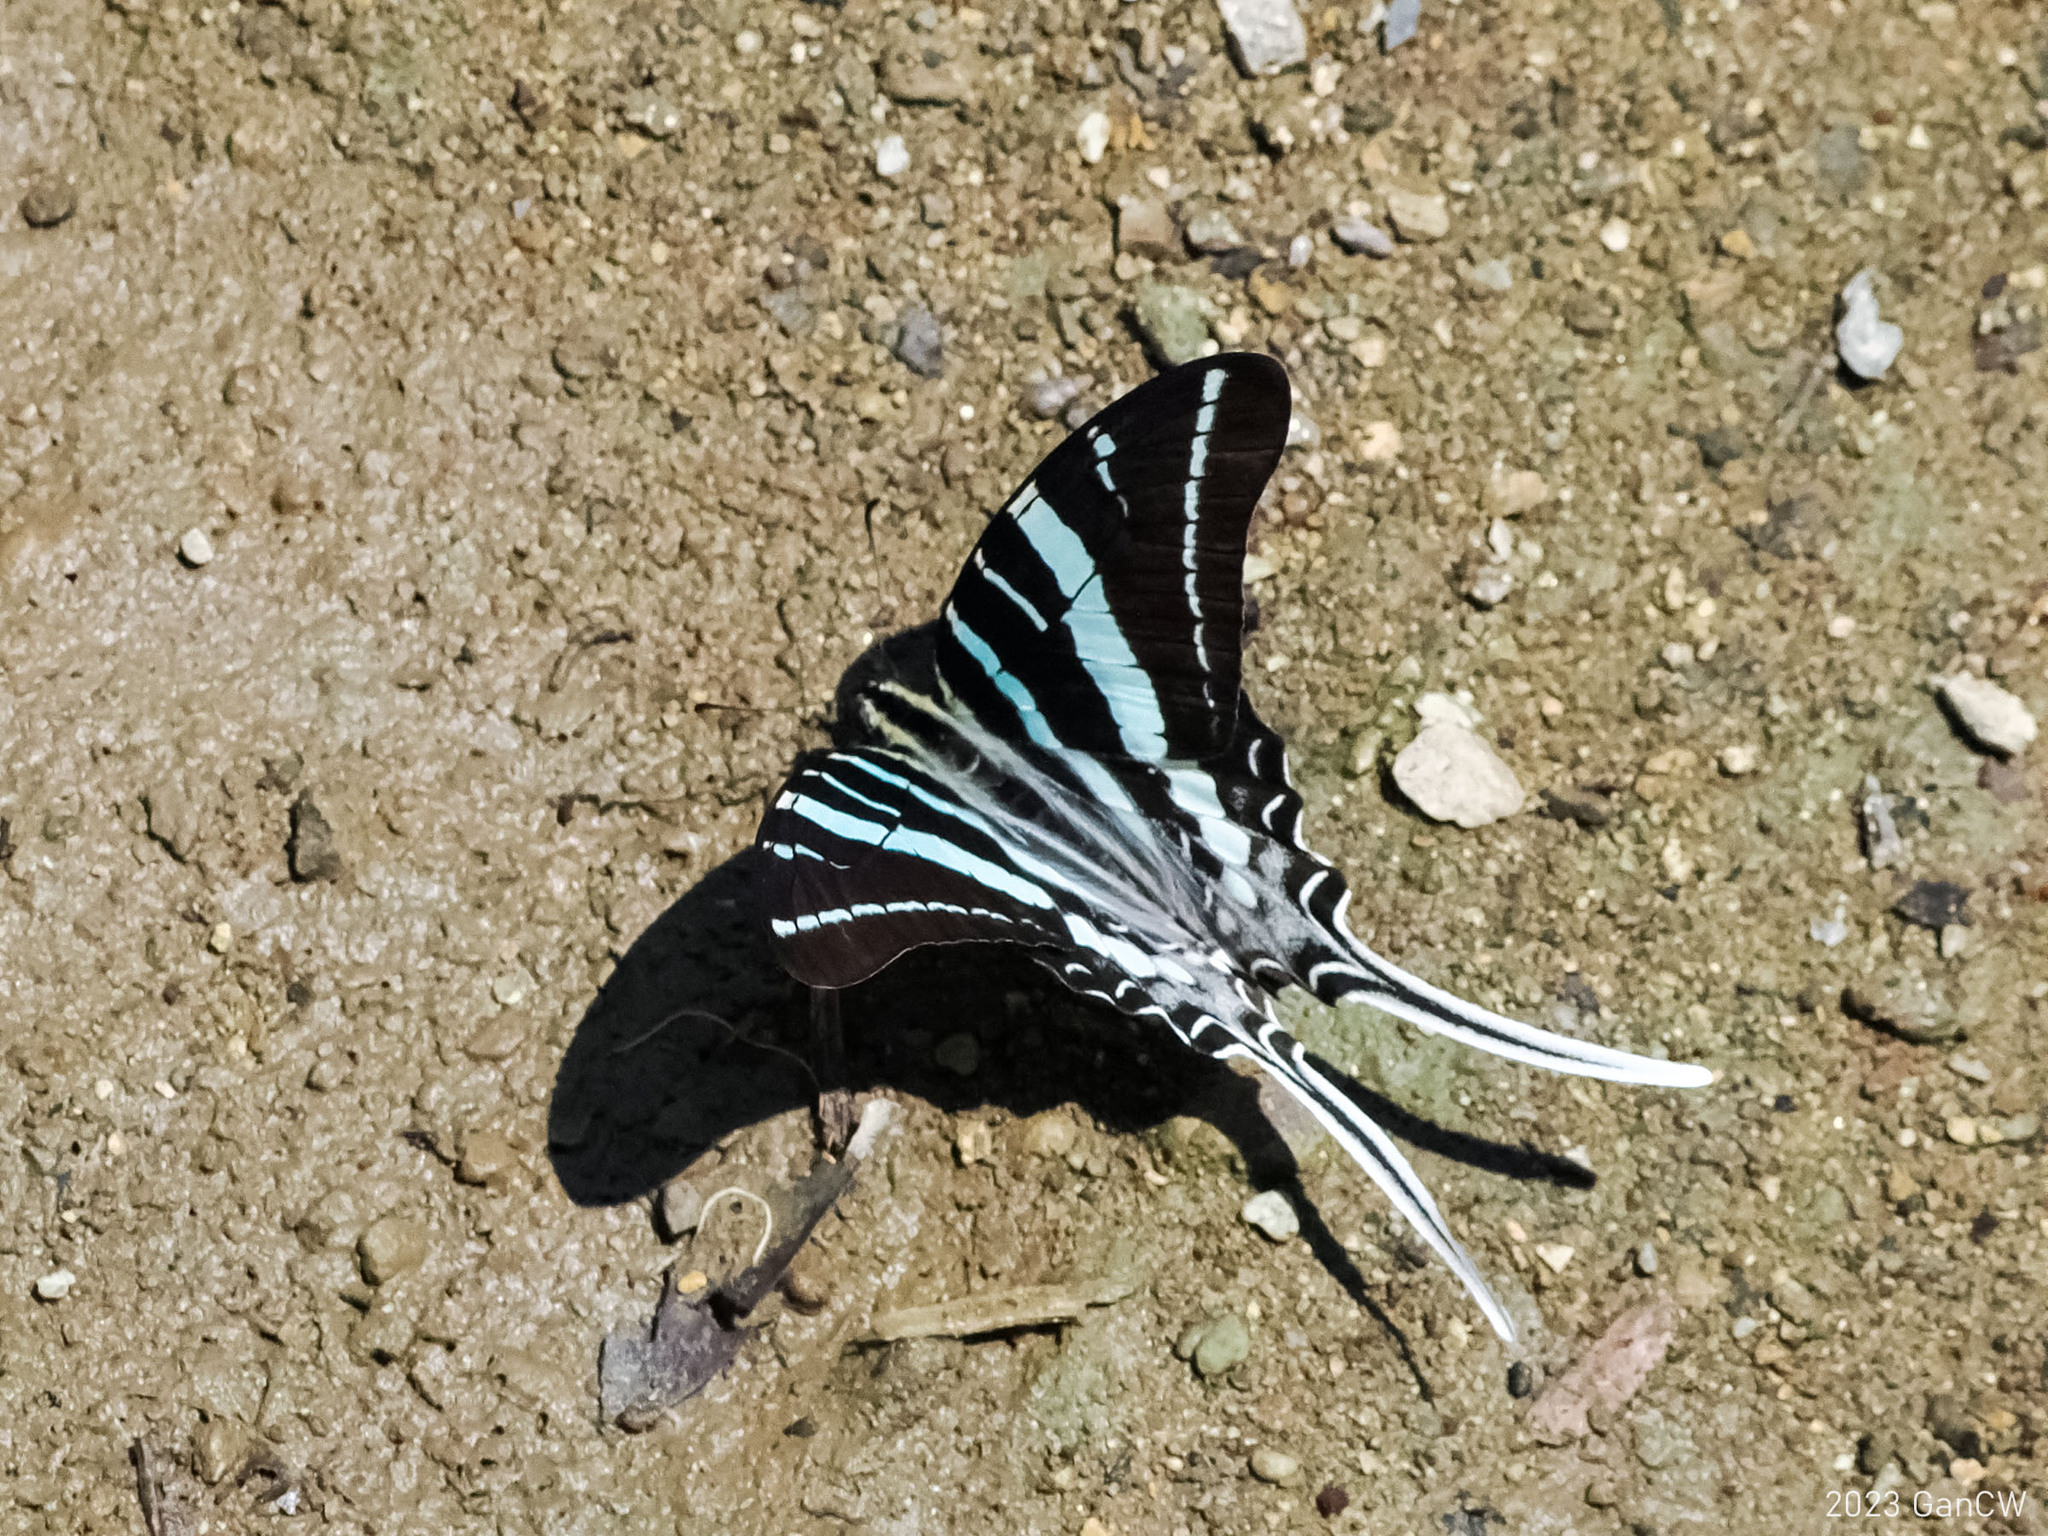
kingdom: Animalia
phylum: Arthropoda
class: Insecta
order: Lepidoptera
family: Papilionidae
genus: Graphium
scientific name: Graphium rhesus
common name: Monkey swordtail
